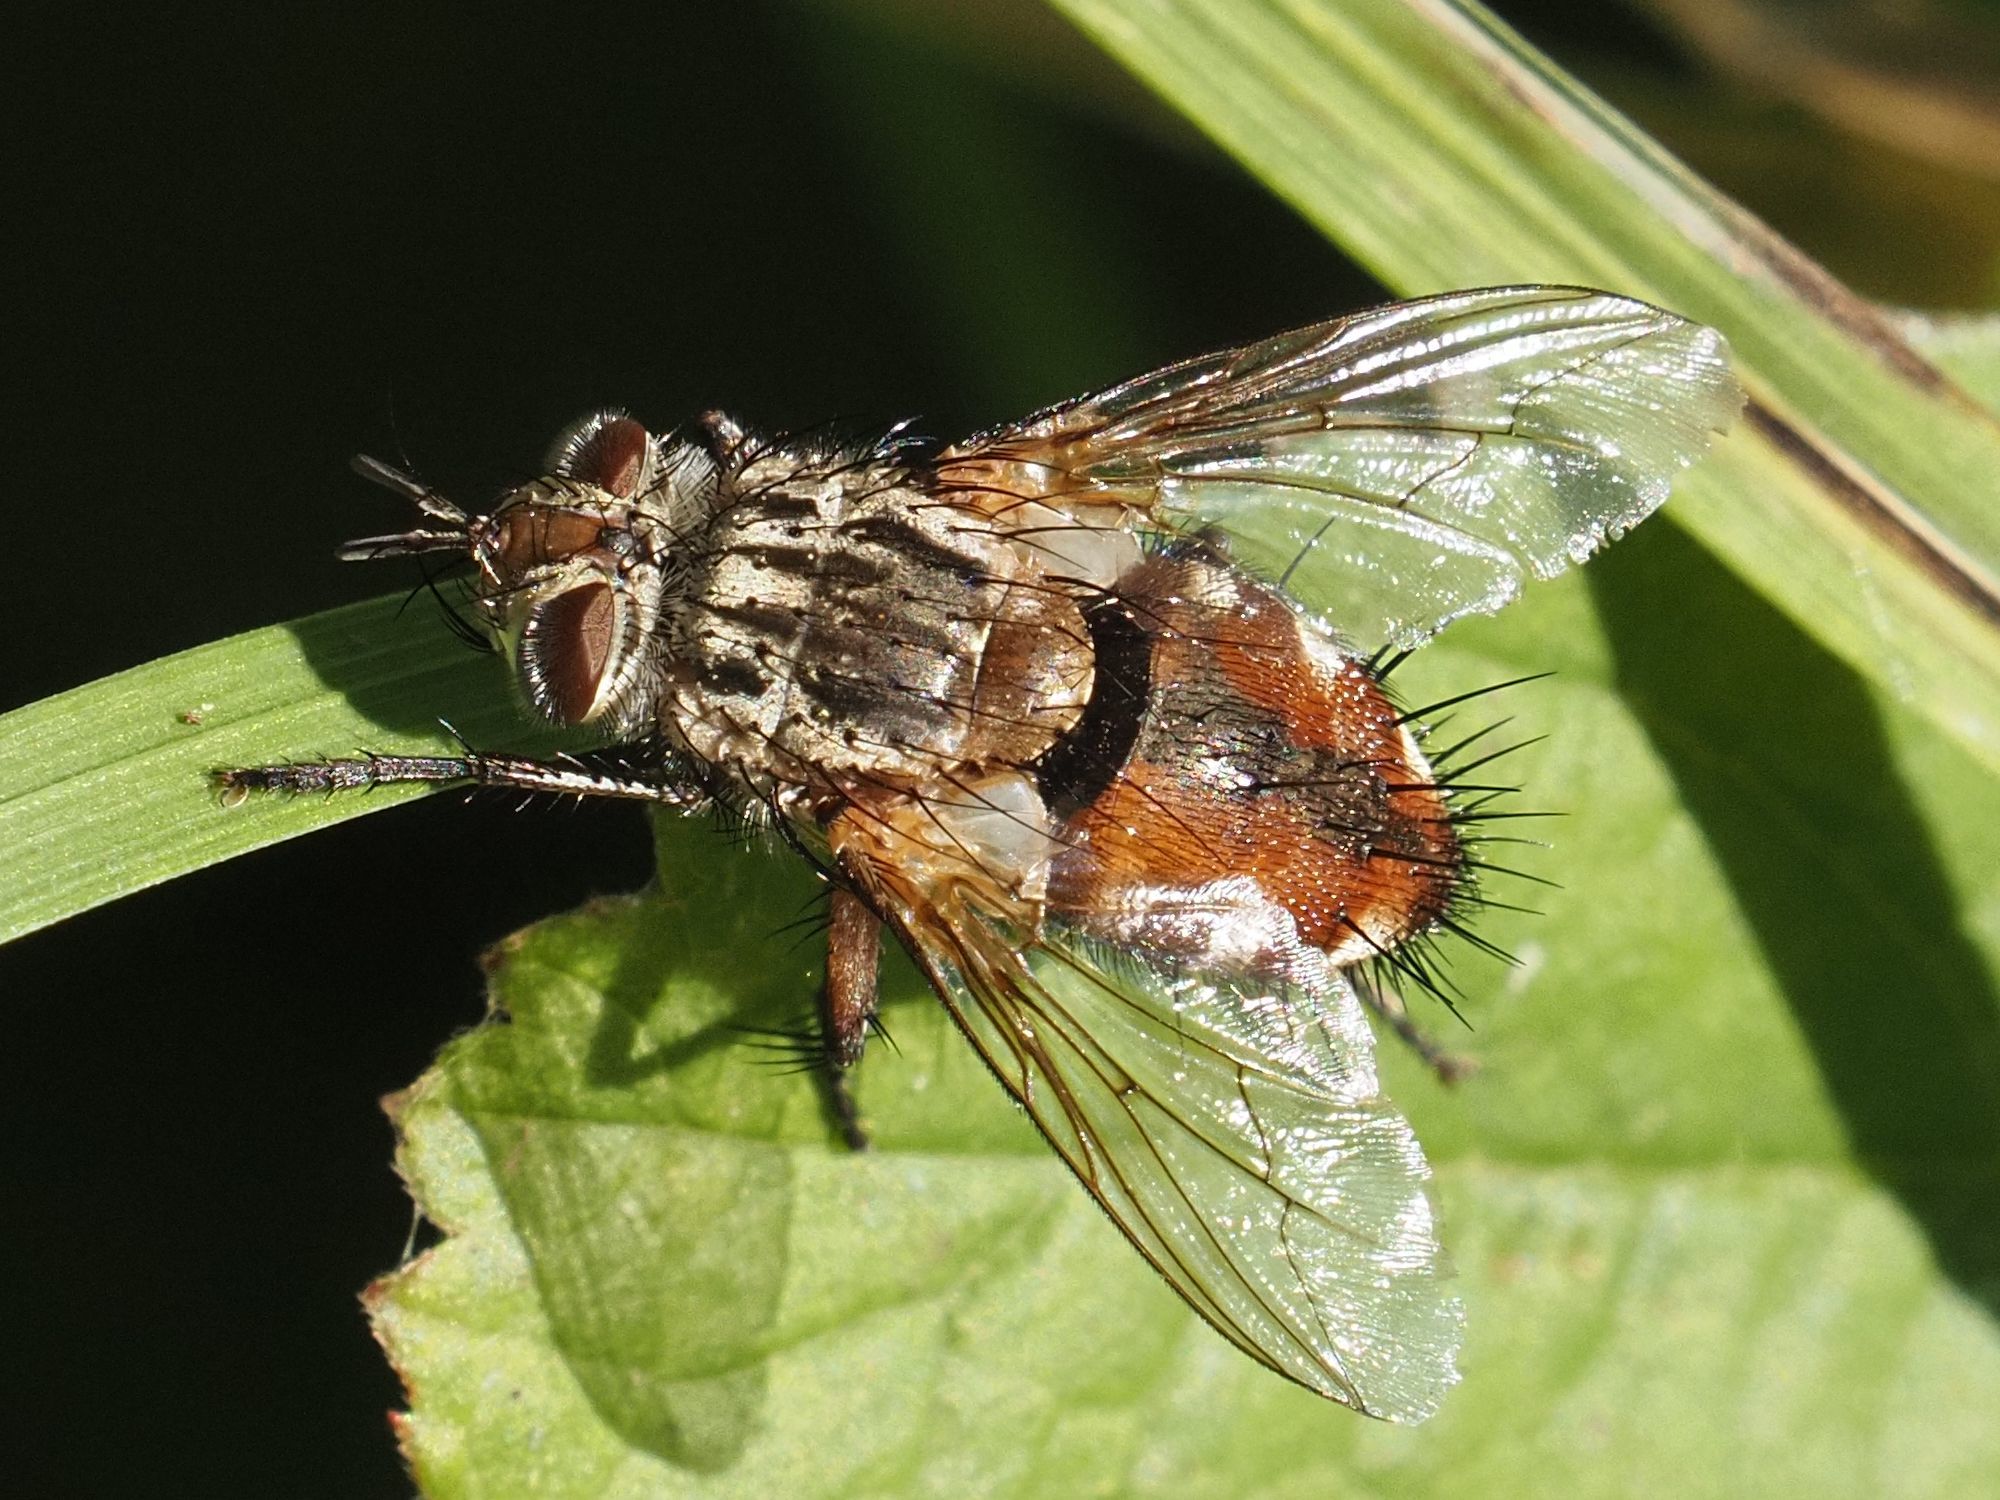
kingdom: Animalia
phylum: Arthropoda
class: Insecta
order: Diptera
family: Tachinidae
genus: Linnaemya
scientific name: Linnaemya vulpina
